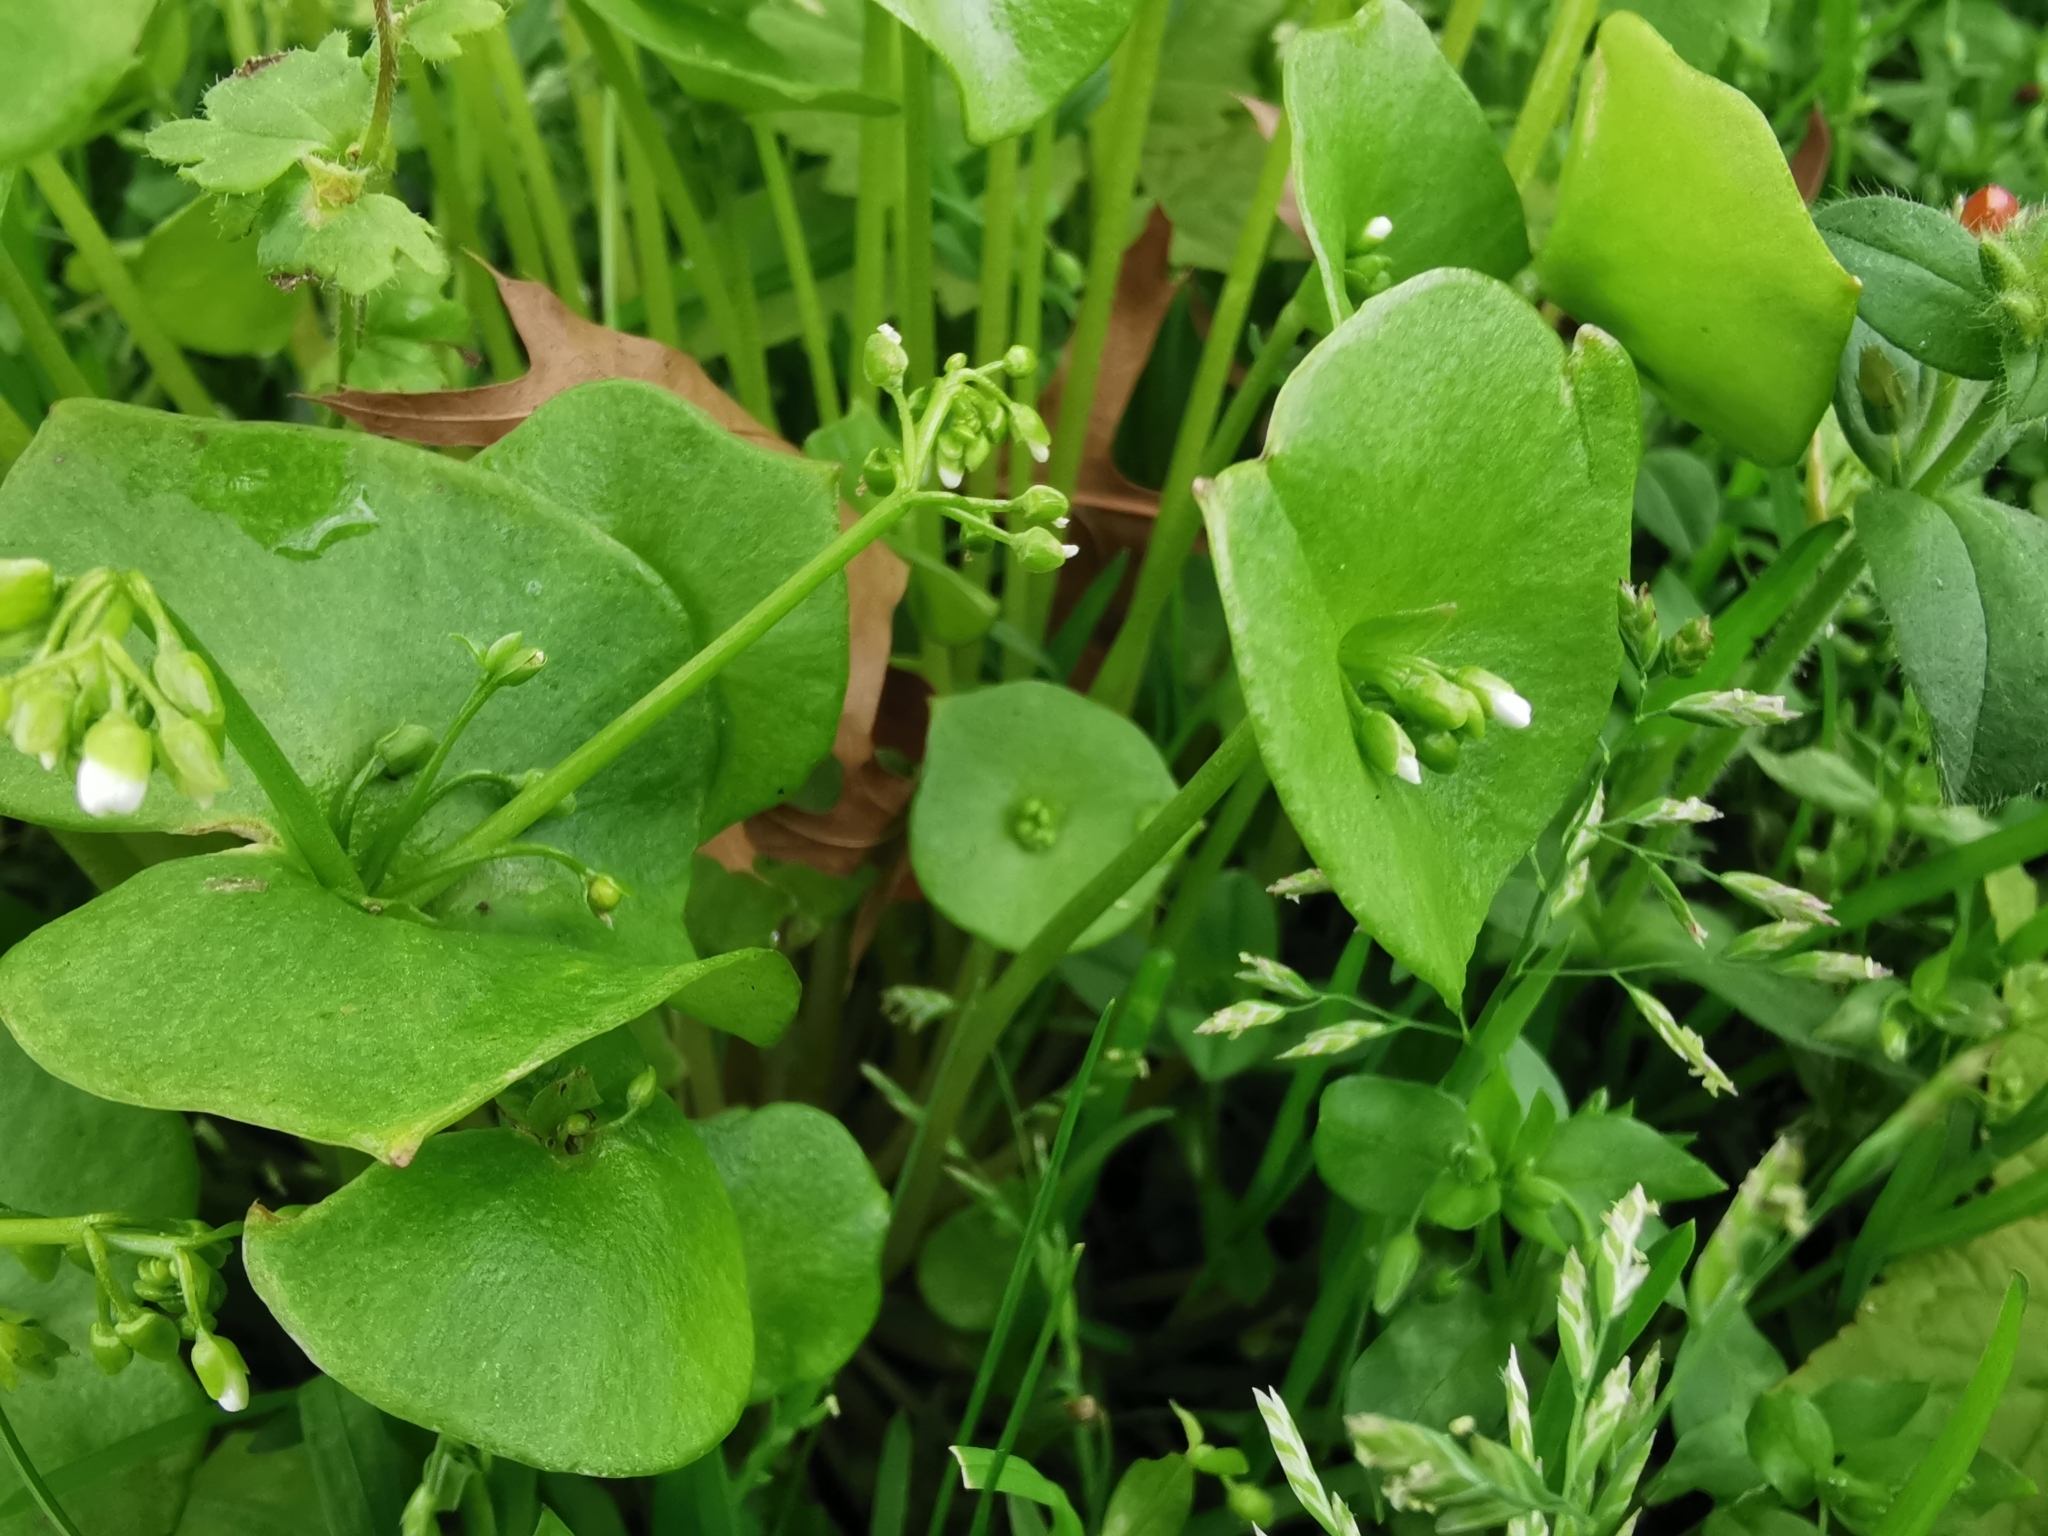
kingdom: Plantae
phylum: Tracheophyta
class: Magnoliopsida
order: Caryophyllales
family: Montiaceae
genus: Claytonia
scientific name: Claytonia perfoliata
